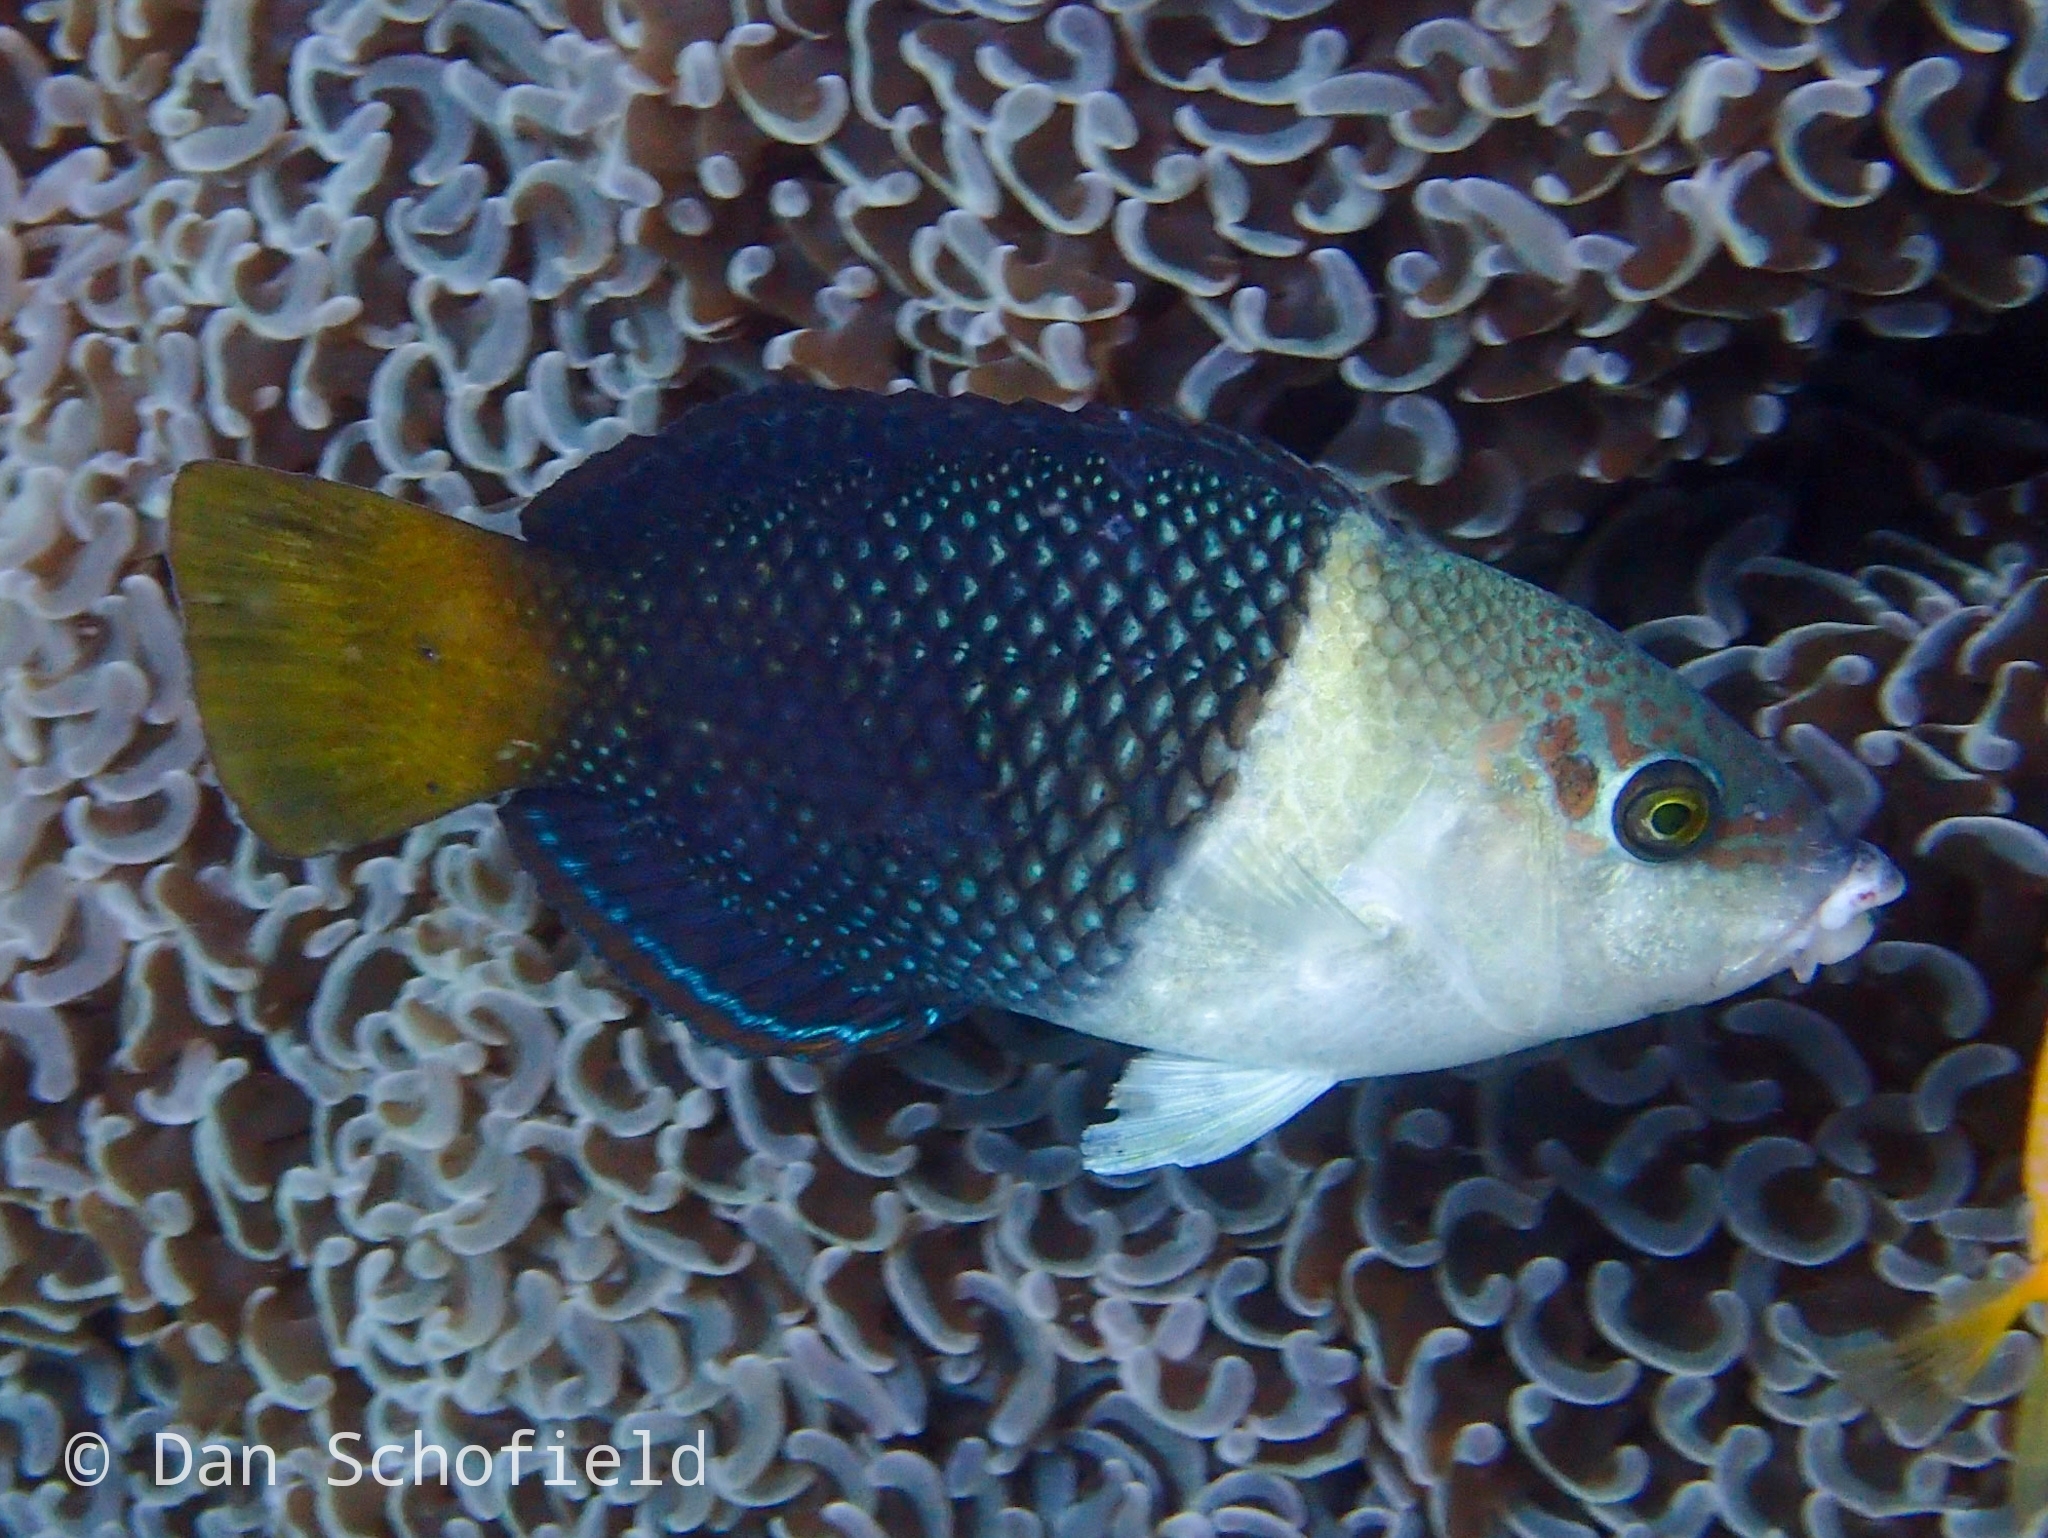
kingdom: Animalia
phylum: Chordata
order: Perciformes
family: Labridae
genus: Hemigymnus
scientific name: Hemigymnus melapterus
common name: Blackeye thicklip
